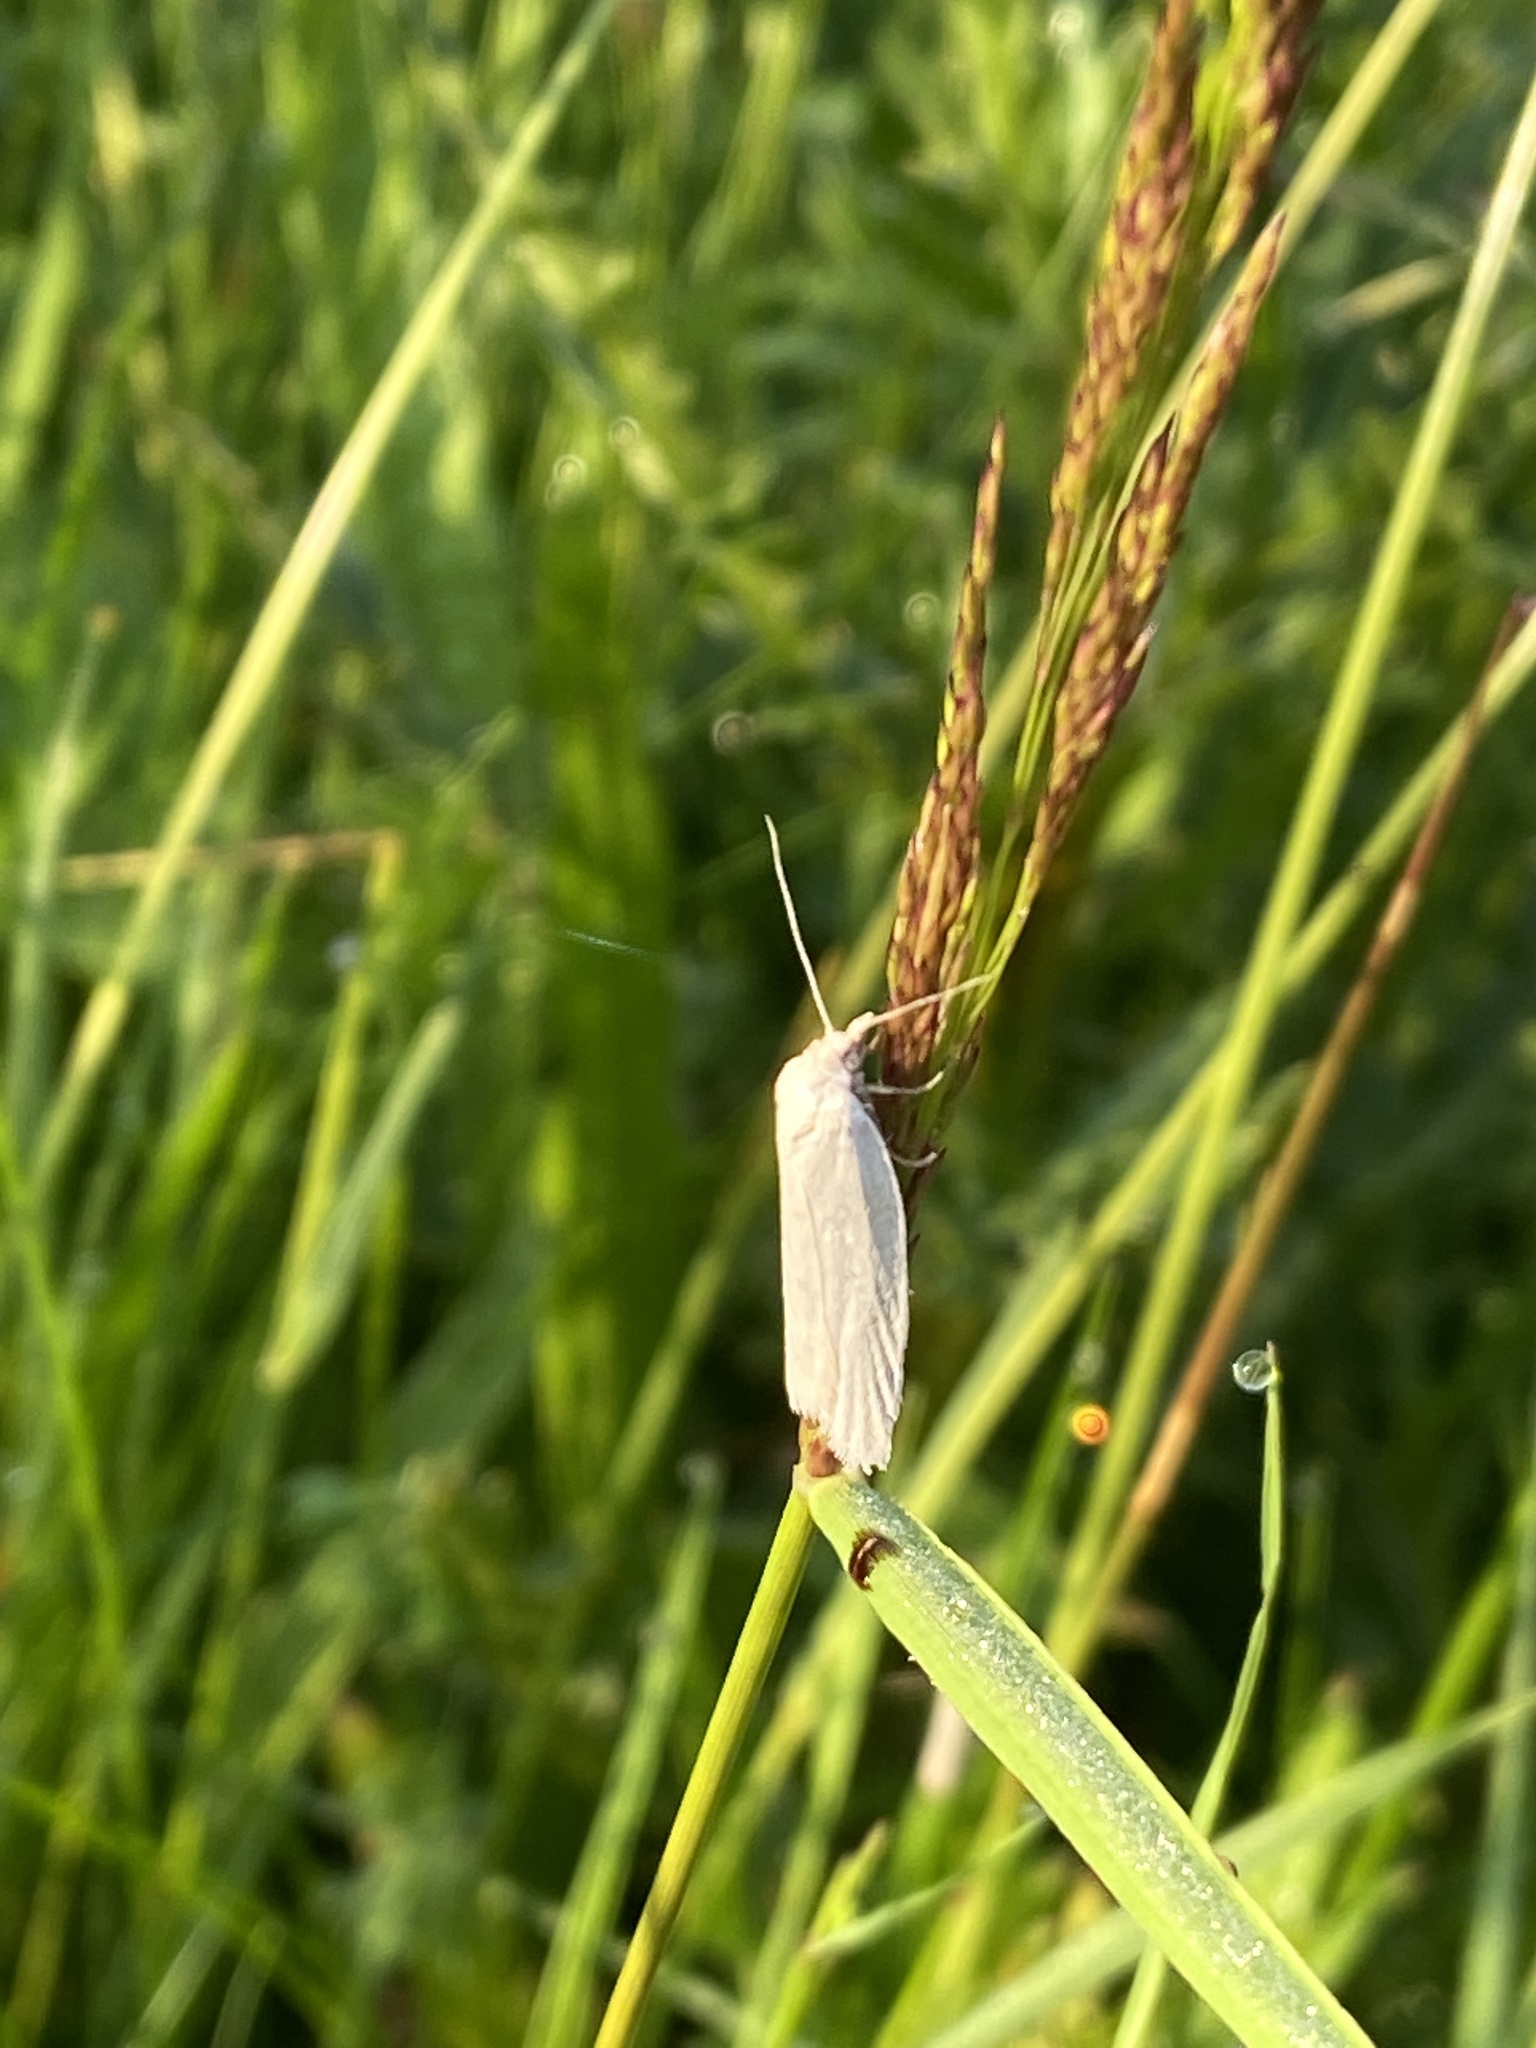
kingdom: Animalia
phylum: Arthropoda
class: Insecta
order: Lepidoptera
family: Tortricidae
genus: Eana
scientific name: Eana argentana
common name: Silver shade
